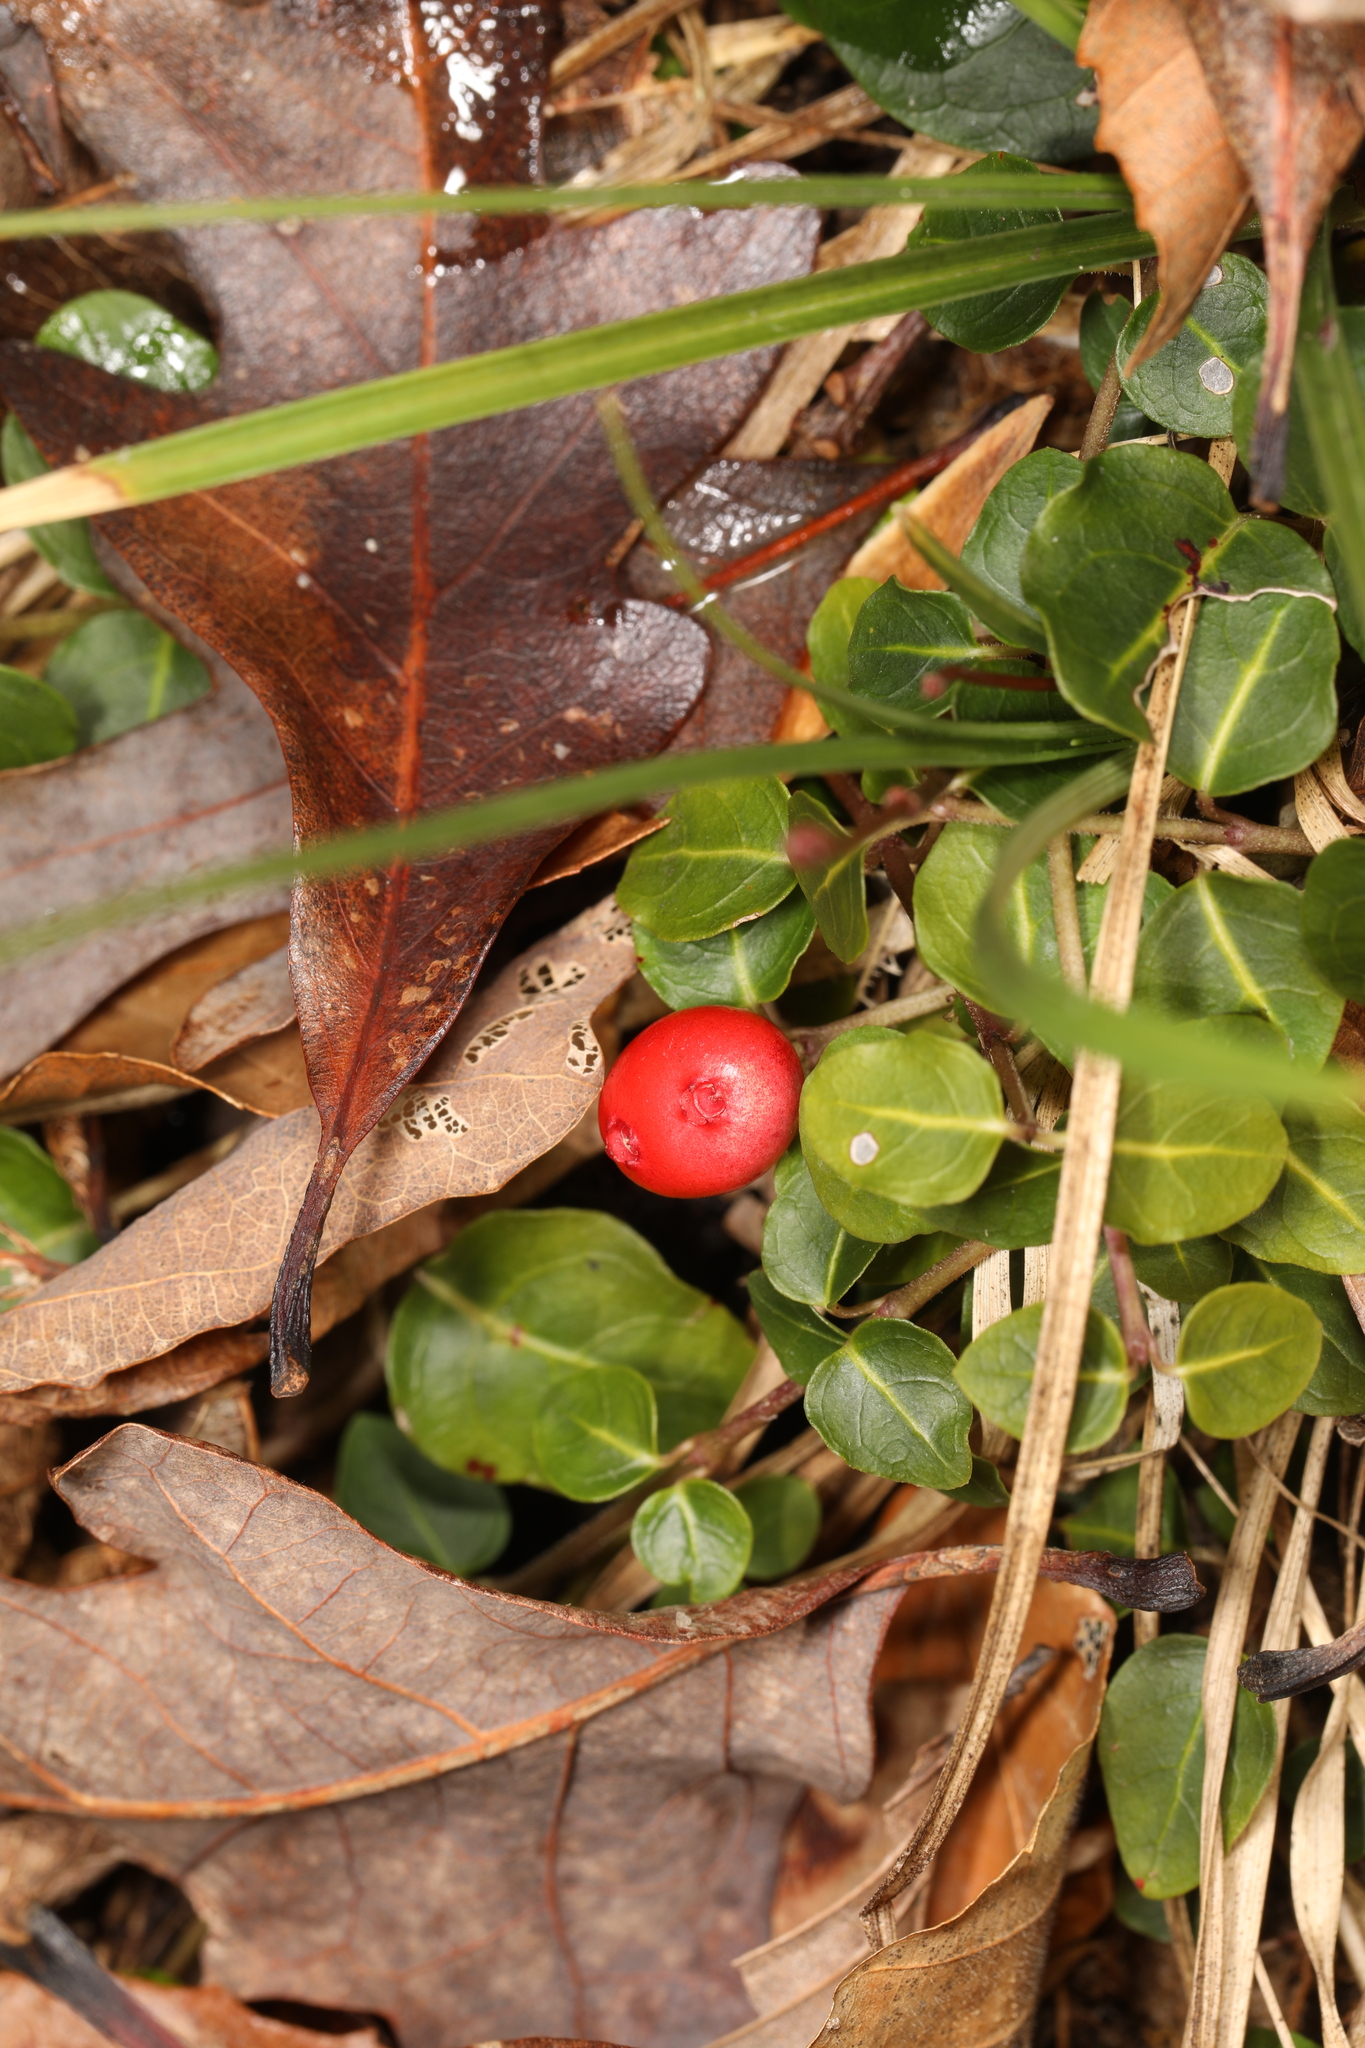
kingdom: Plantae
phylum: Tracheophyta
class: Magnoliopsida
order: Gentianales
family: Rubiaceae
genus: Mitchella
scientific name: Mitchella repens
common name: Partridge-berry
